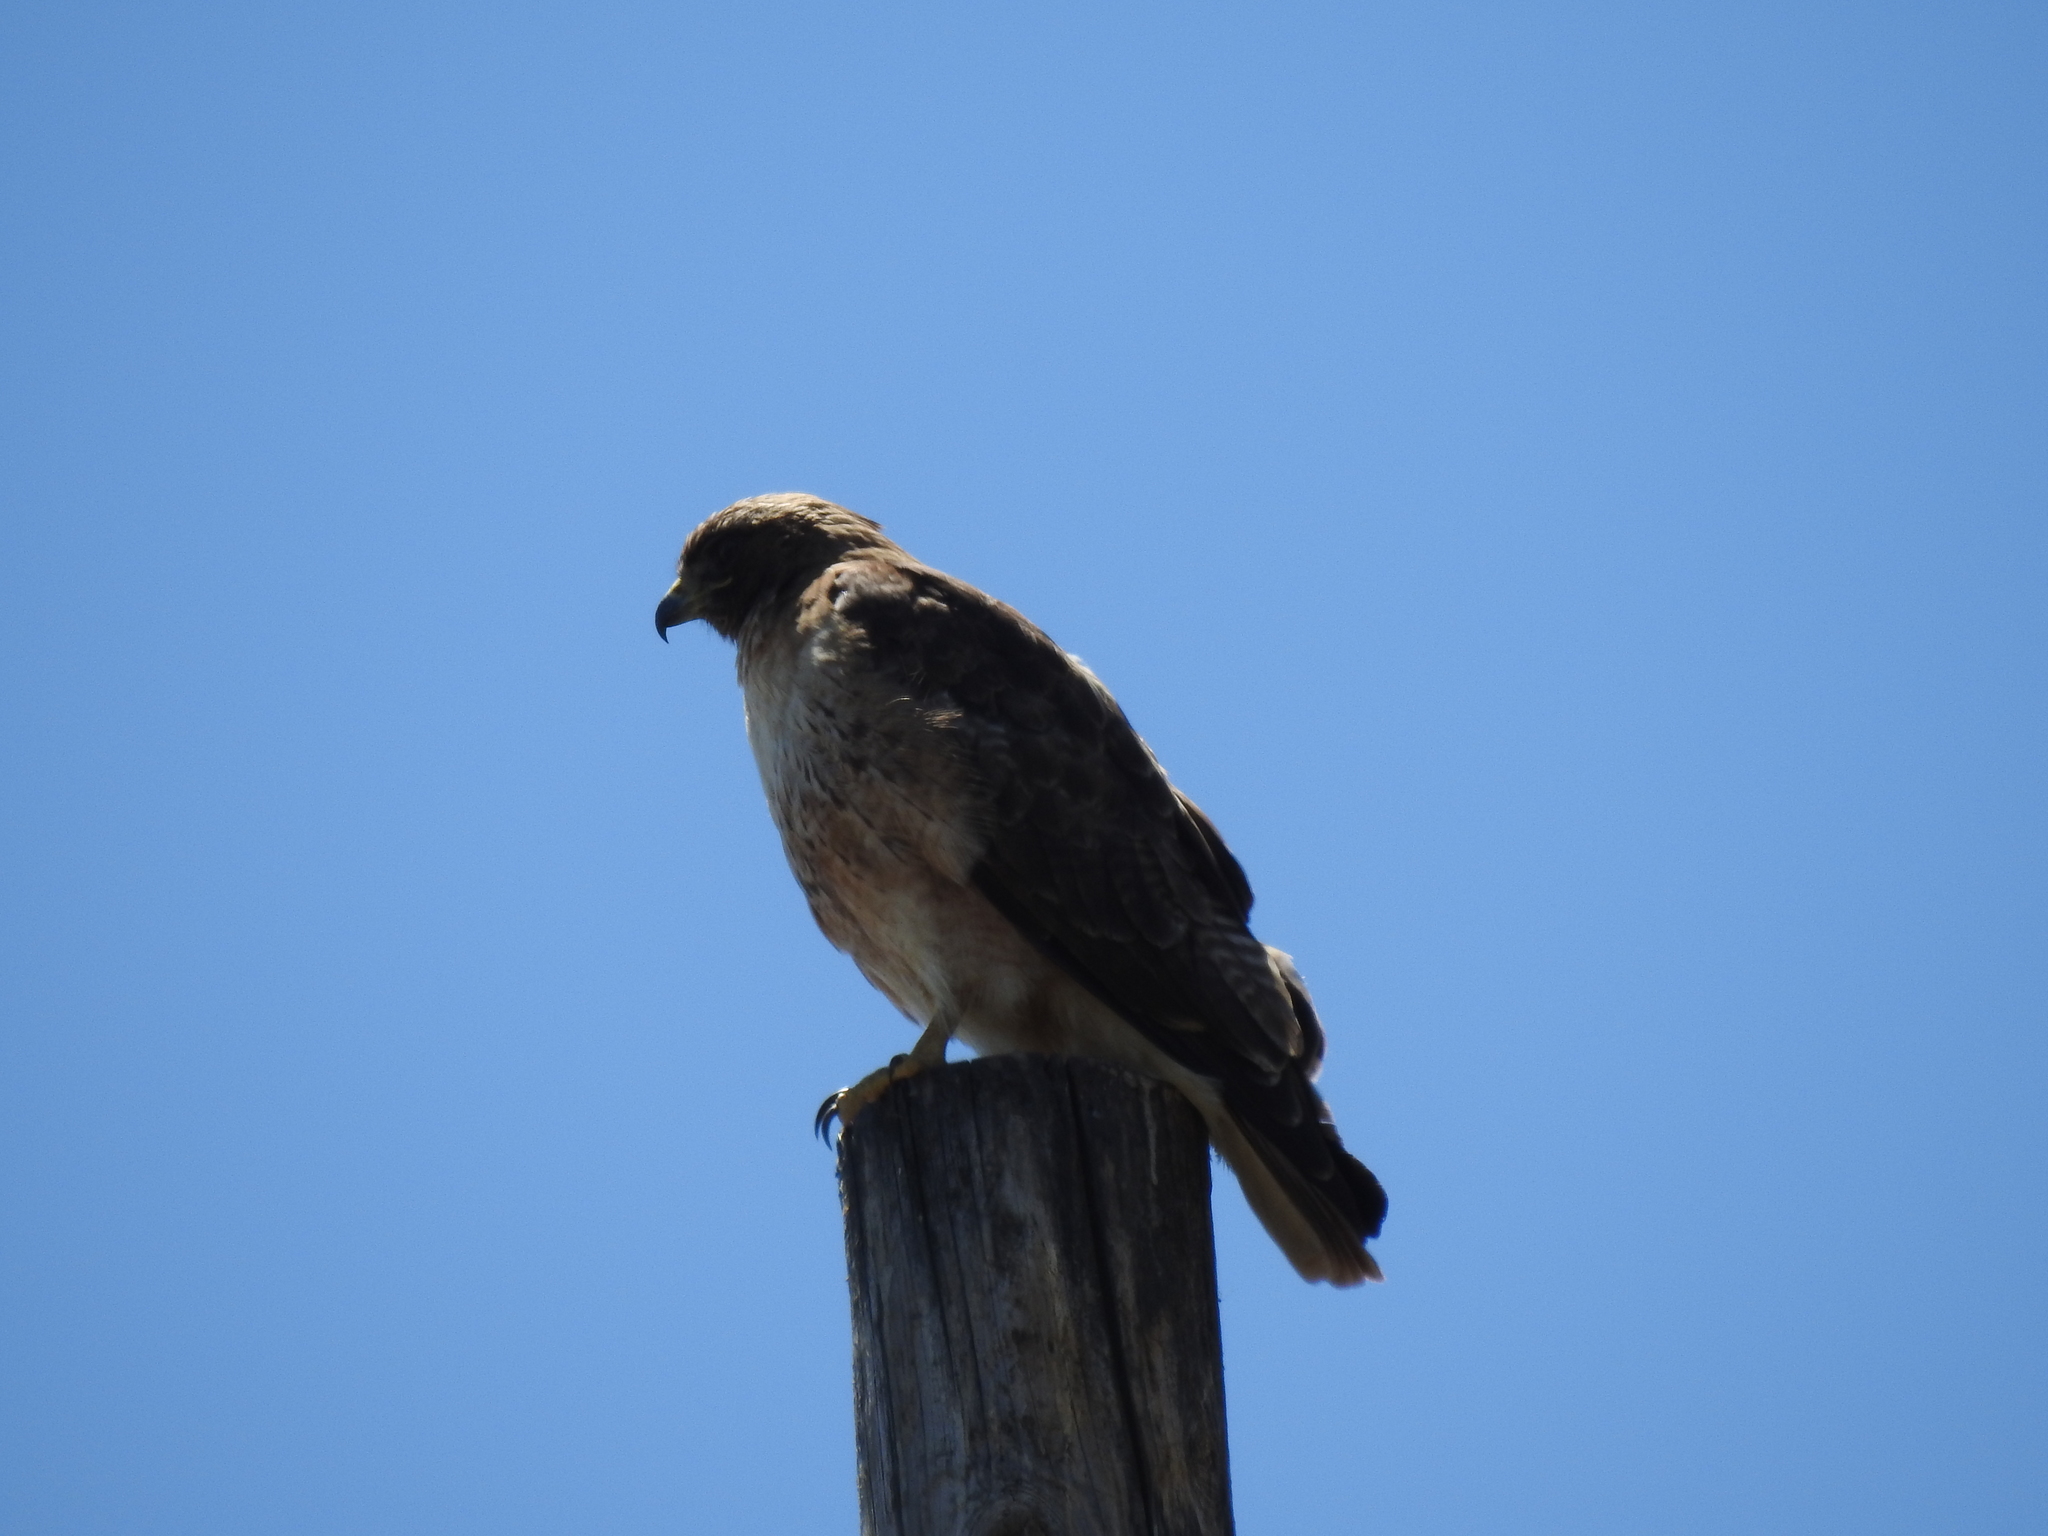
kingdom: Animalia
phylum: Chordata
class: Aves
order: Accipitriformes
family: Accipitridae
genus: Buteo
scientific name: Buteo jamaicensis
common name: Red-tailed hawk
